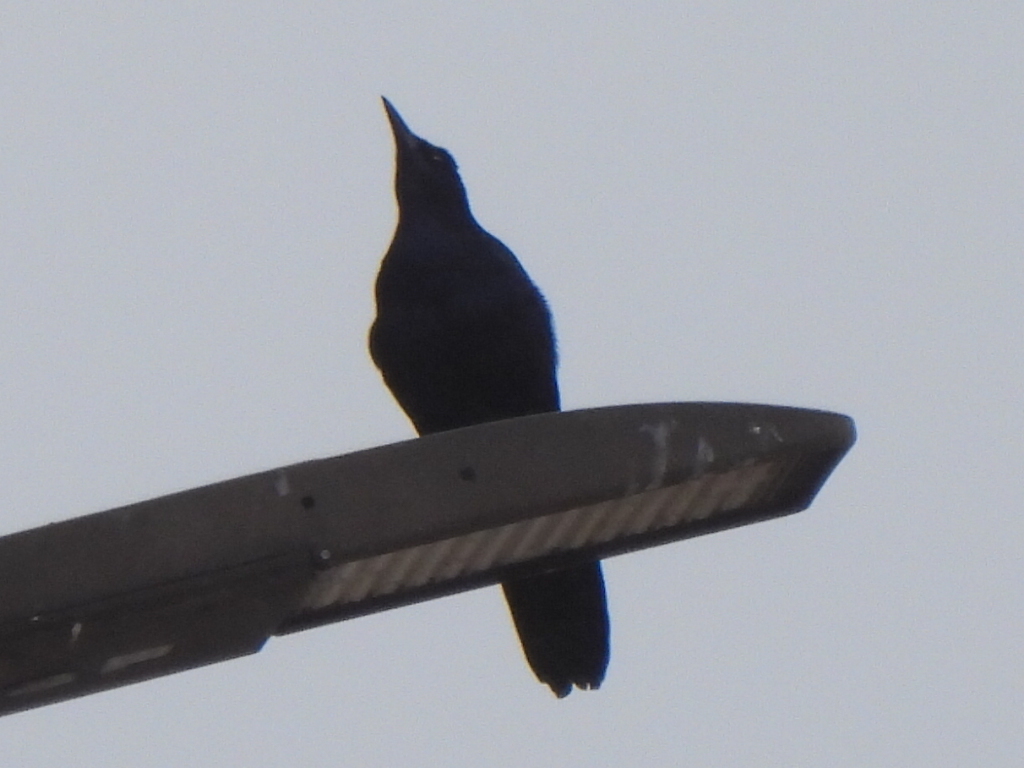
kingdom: Animalia
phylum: Chordata
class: Aves
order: Passeriformes
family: Icteridae
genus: Quiscalus
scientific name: Quiscalus mexicanus
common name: Great-tailed grackle
